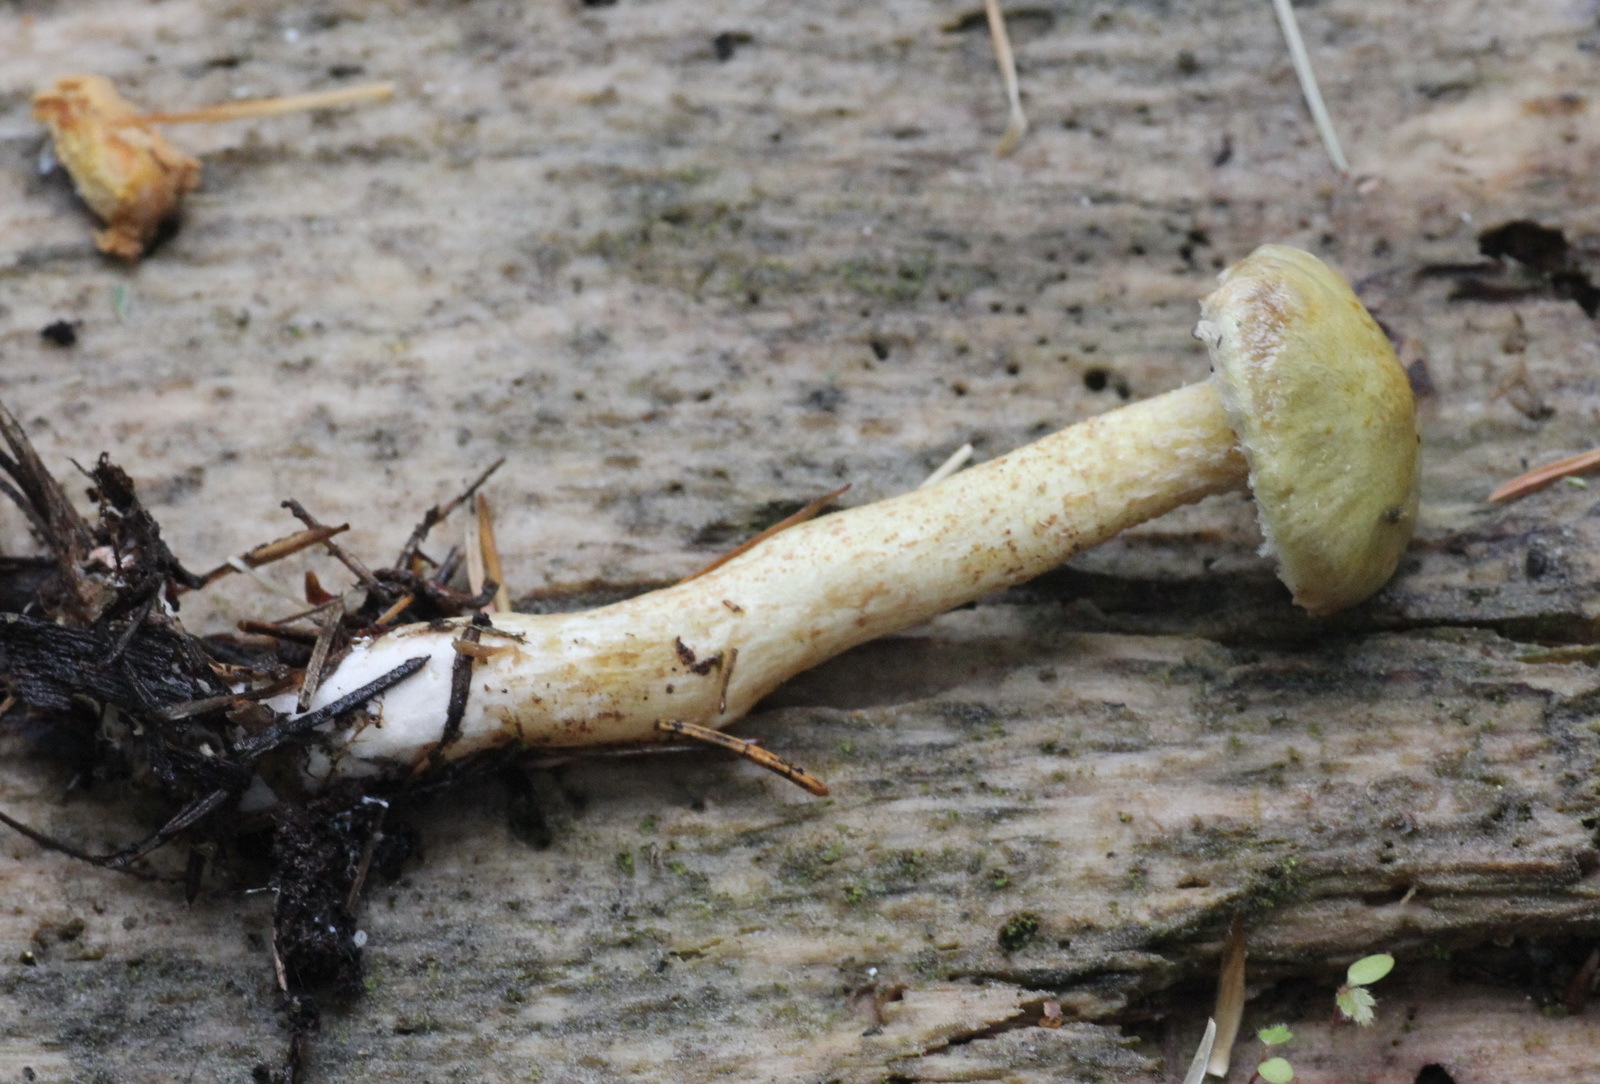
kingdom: Fungi
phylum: Basidiomycota
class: Agaricomycetes
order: Boletales
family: Suillaceae
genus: Suillus
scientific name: Suillus americanus
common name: Chicken fat mushroom
